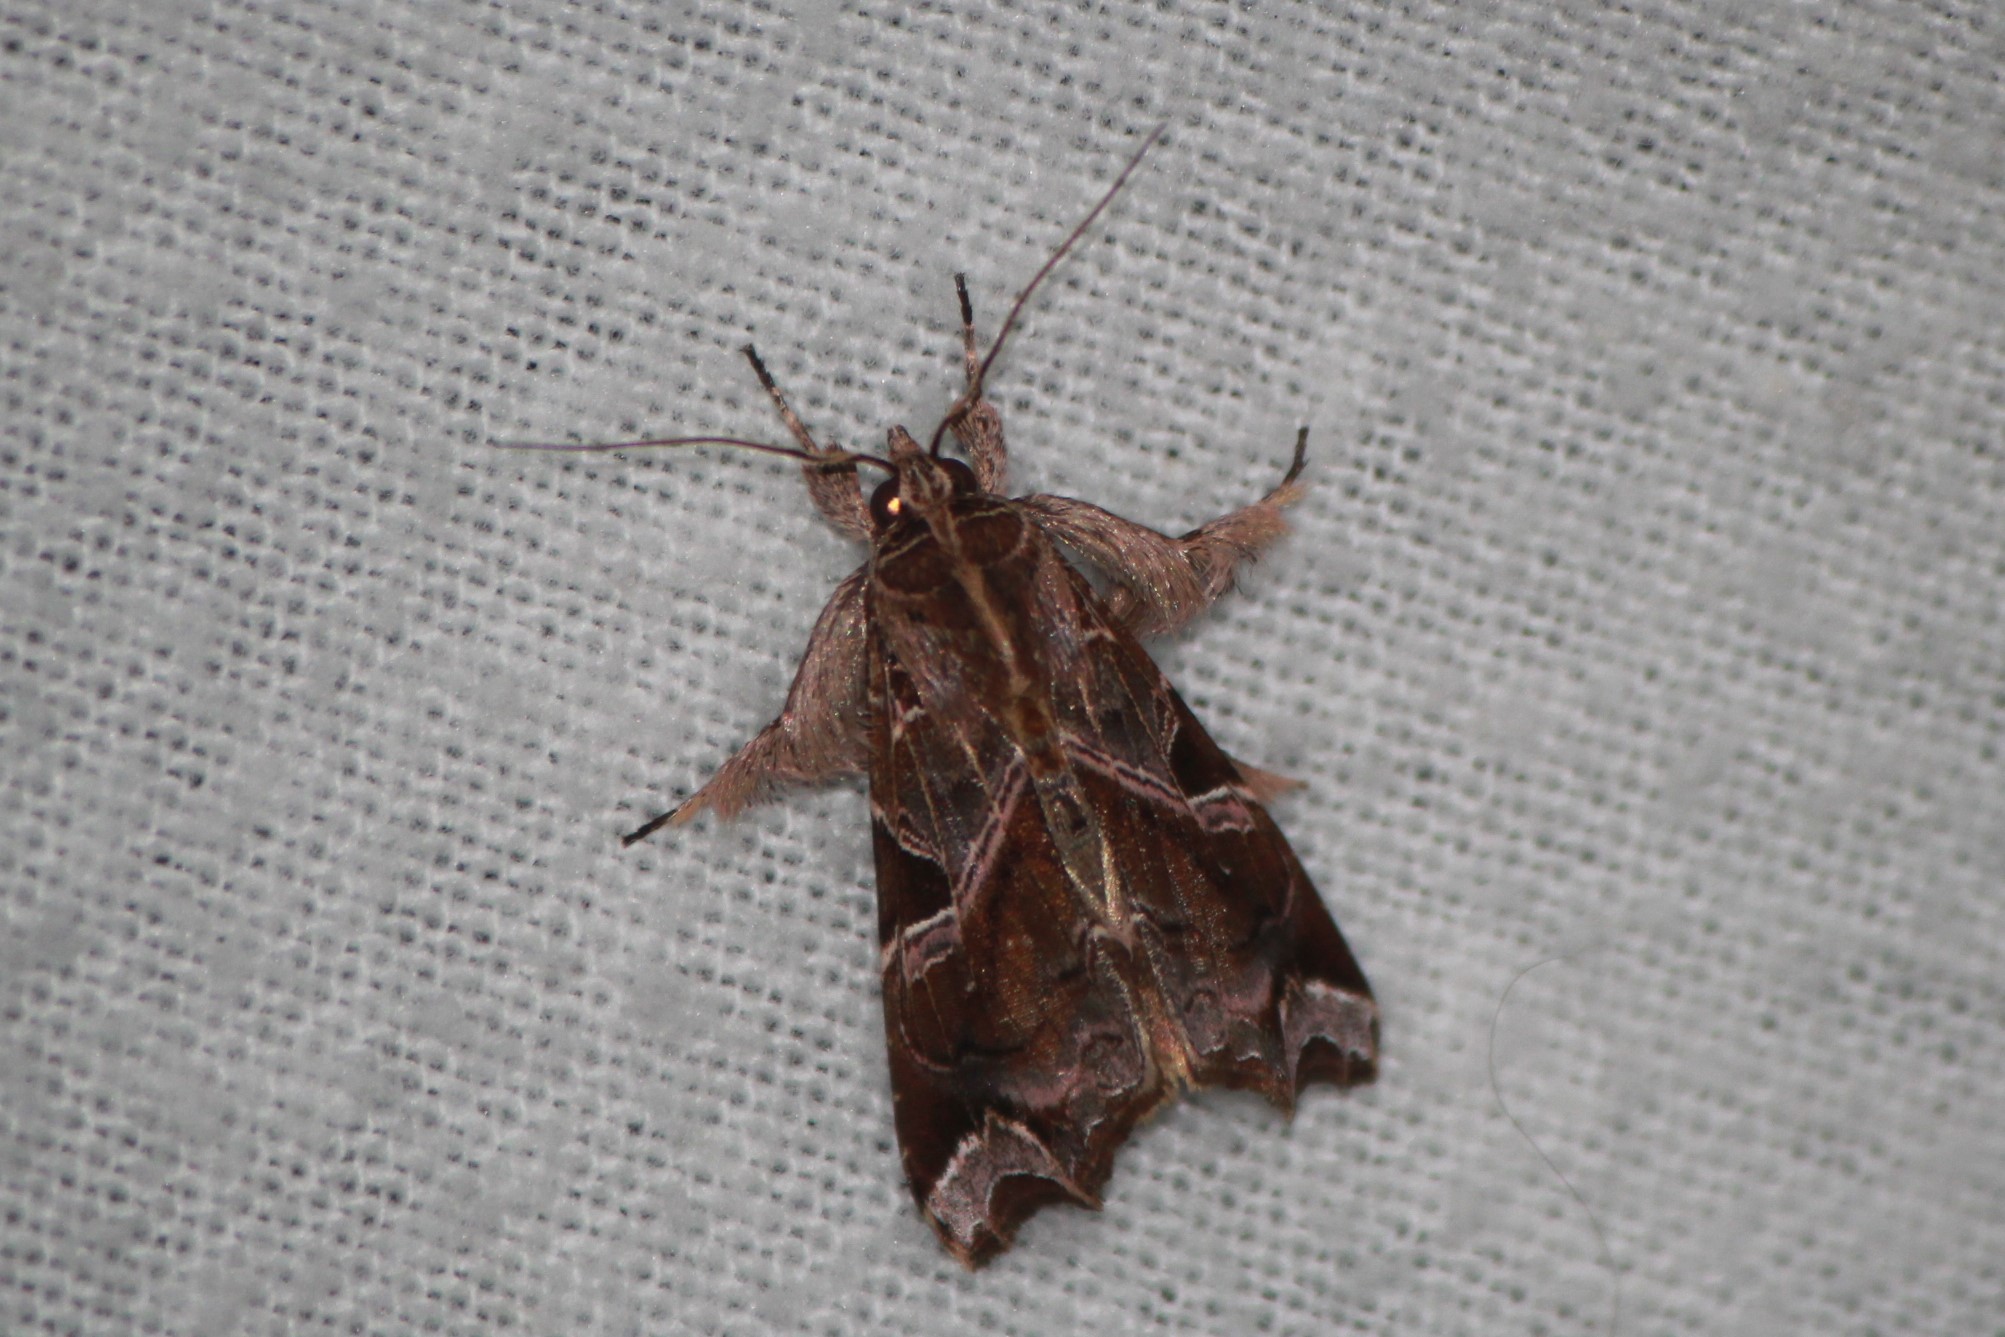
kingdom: Animalia
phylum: Arthropoda
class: Insecta
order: Lepidoptera
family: Noctuidae
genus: Callopistria
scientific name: Callopistria floridensis
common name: Florida fern moth
